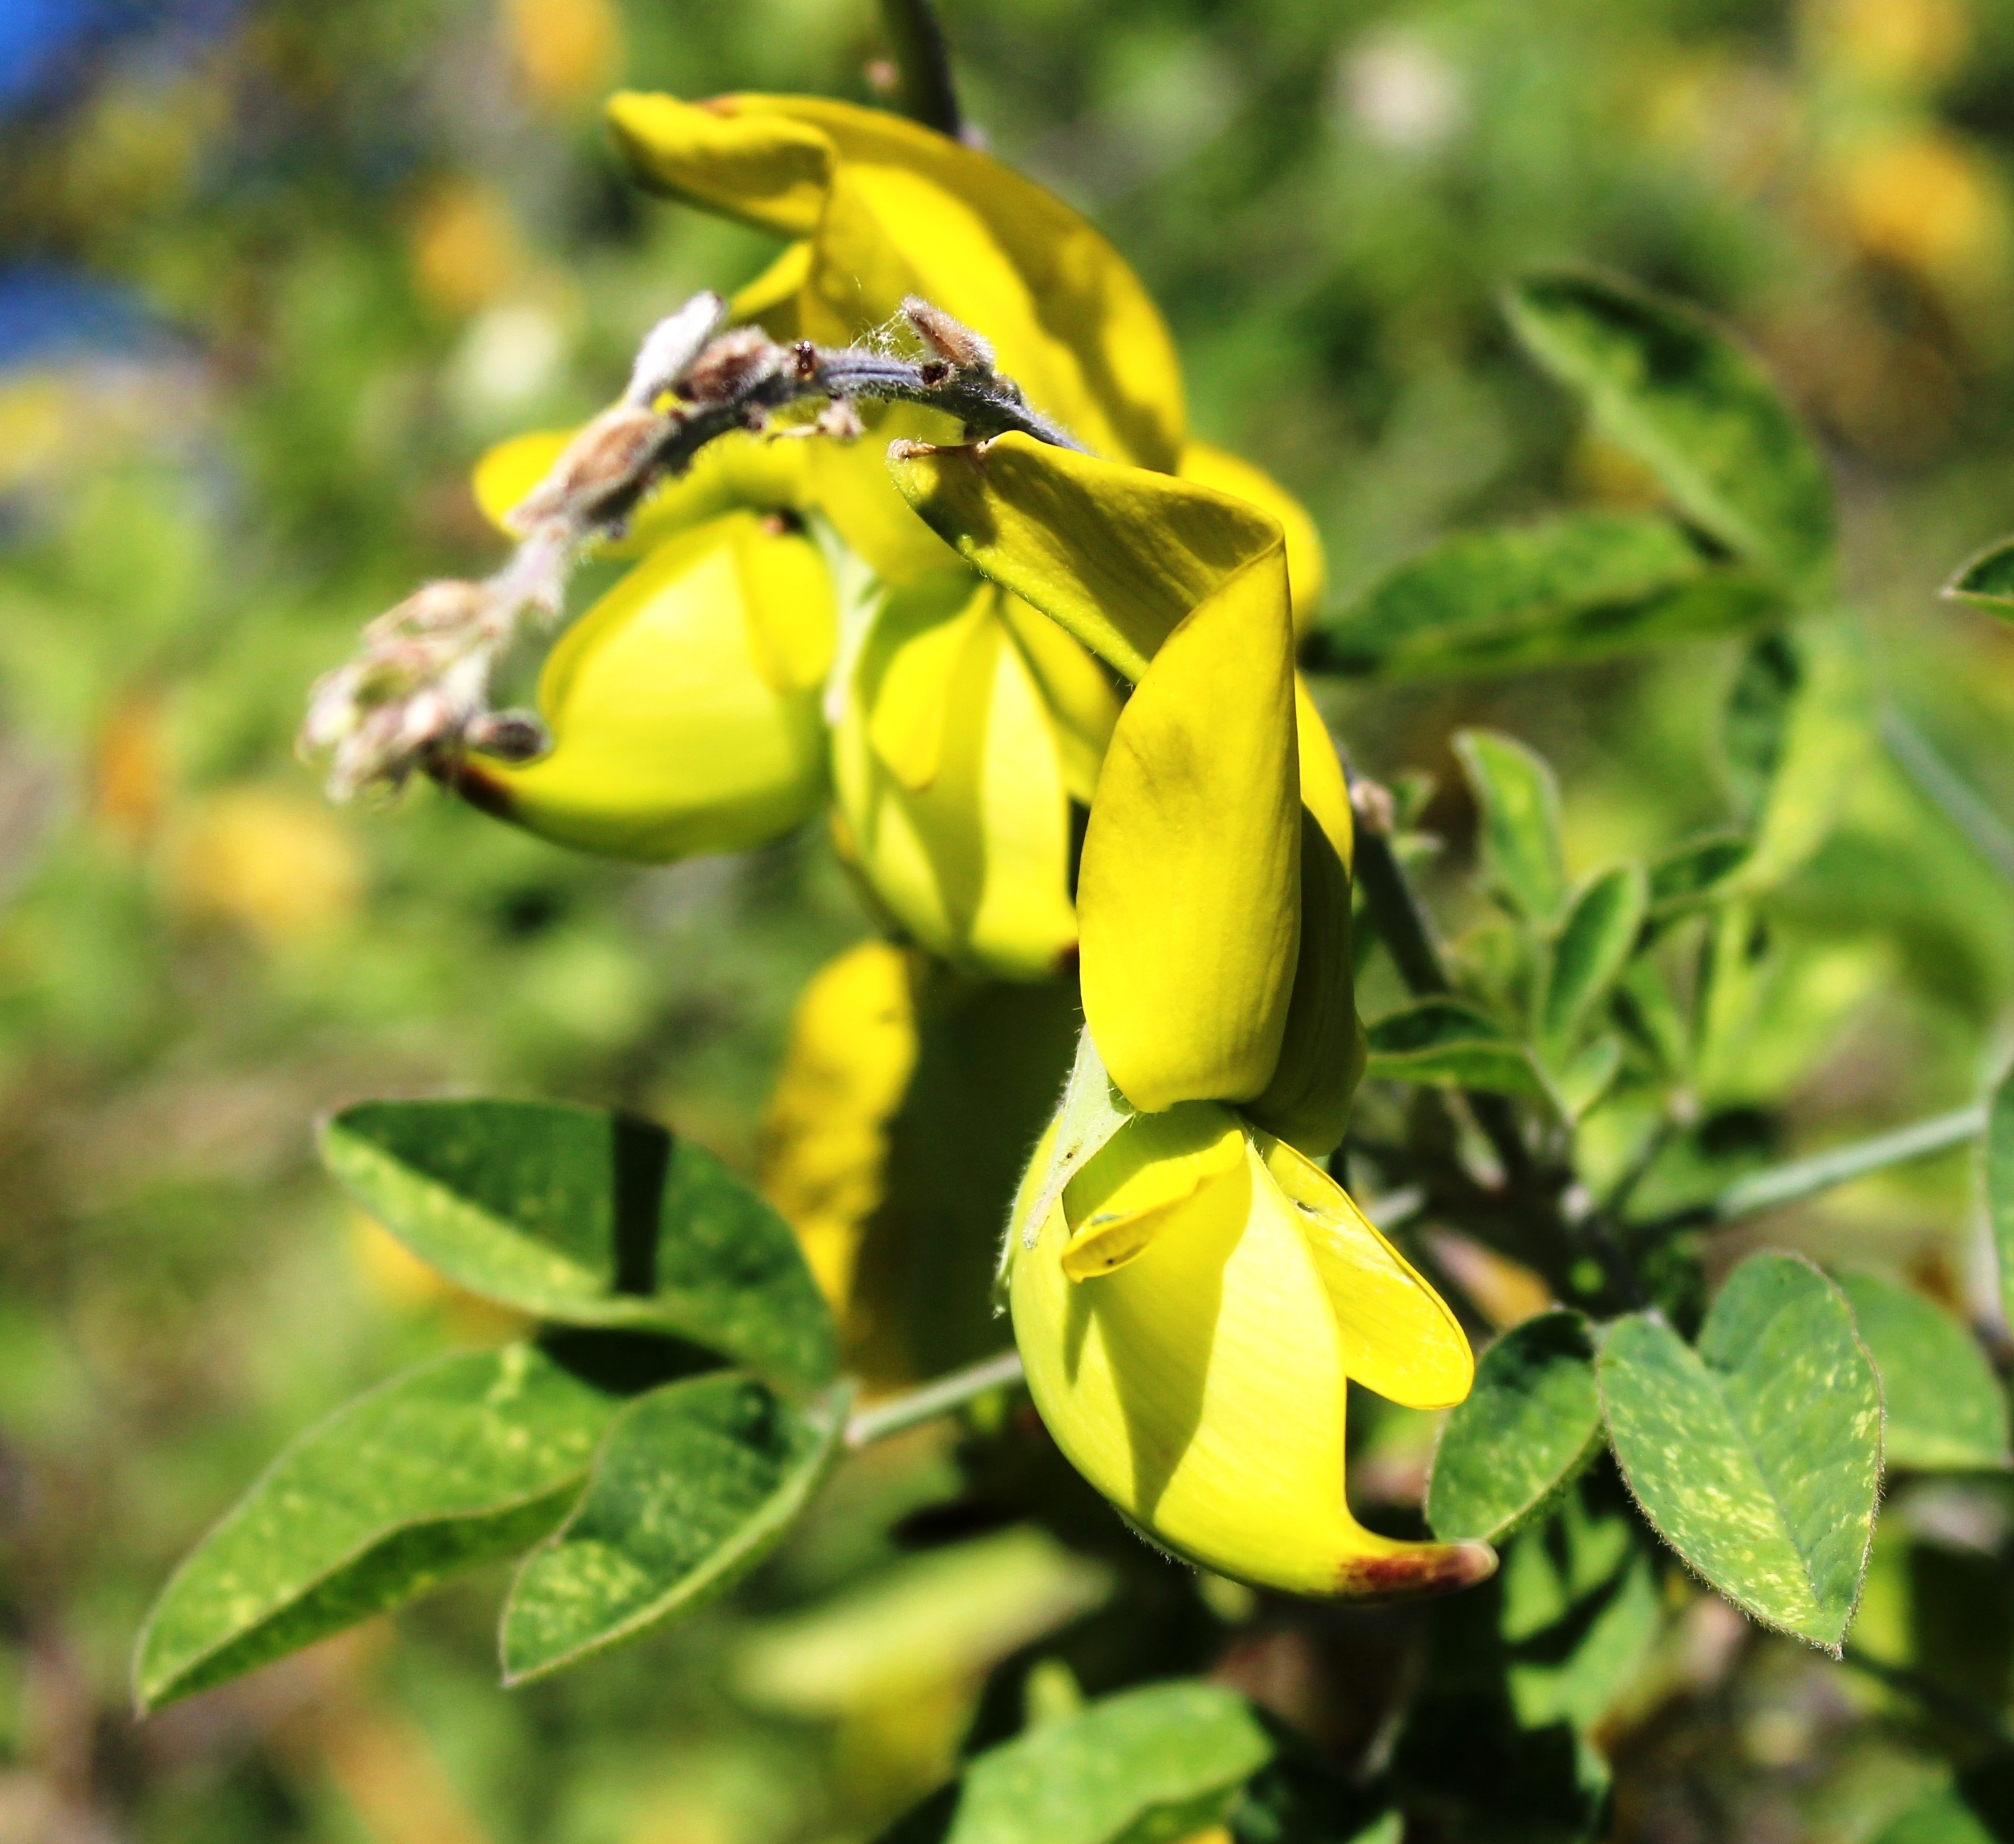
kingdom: Plantae
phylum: Tracheophyta
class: Magnoliopsida
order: Fabales
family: Fabaceae
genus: Crotalaria
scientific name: Crotalaria agatiflora
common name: Birdflower
